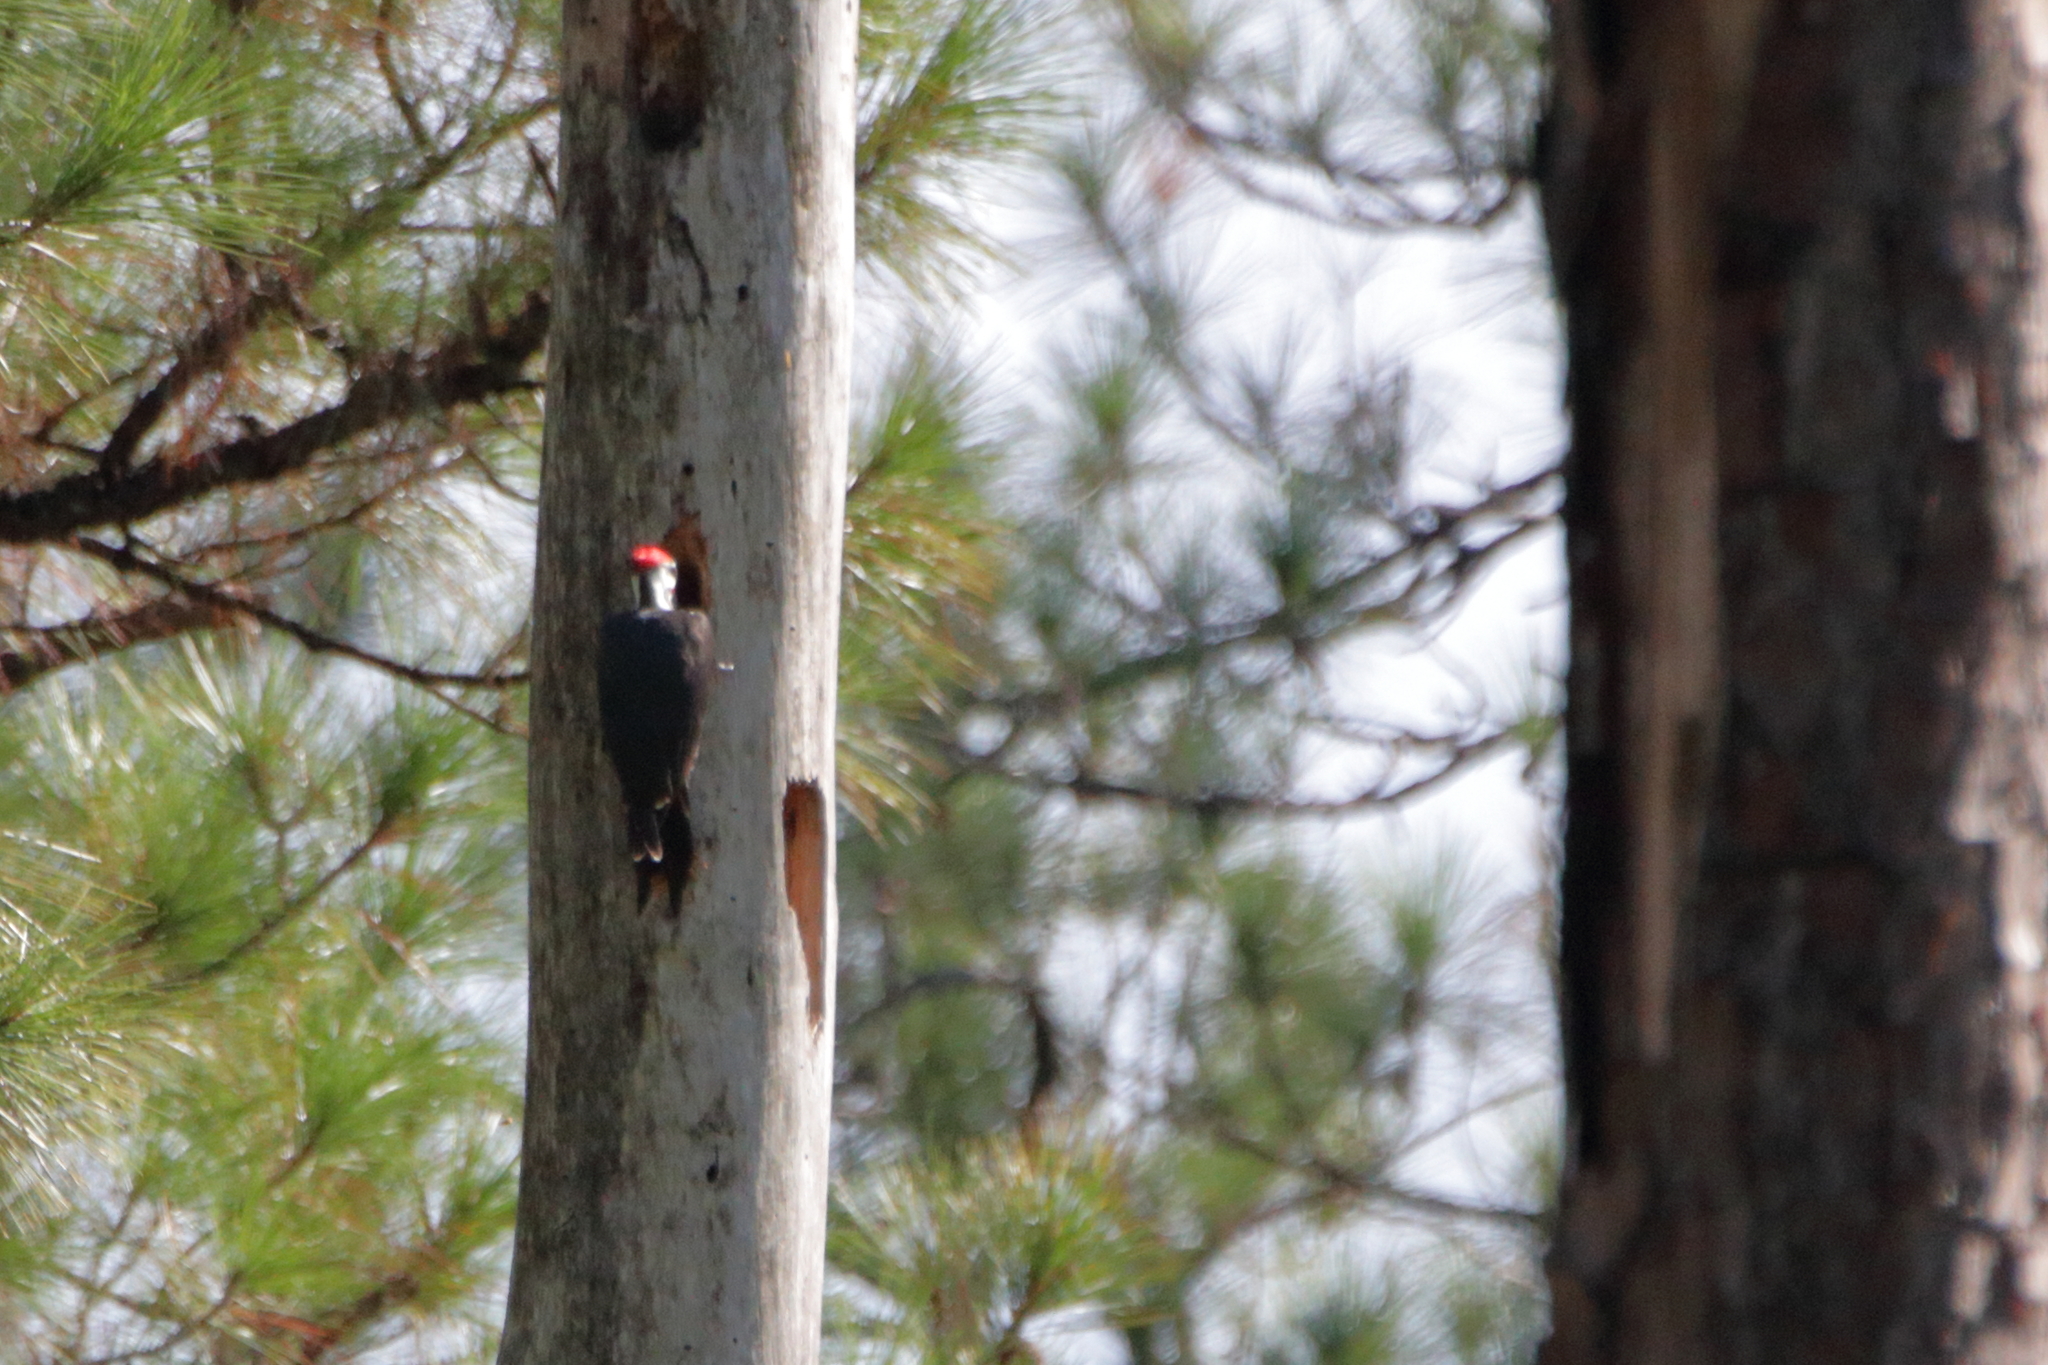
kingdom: Animalia
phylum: Chordata
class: Aves
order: Piciformes
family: Picidae
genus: Dryocopus
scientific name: Dryocopus pileatus
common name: Pileated woodpecker
